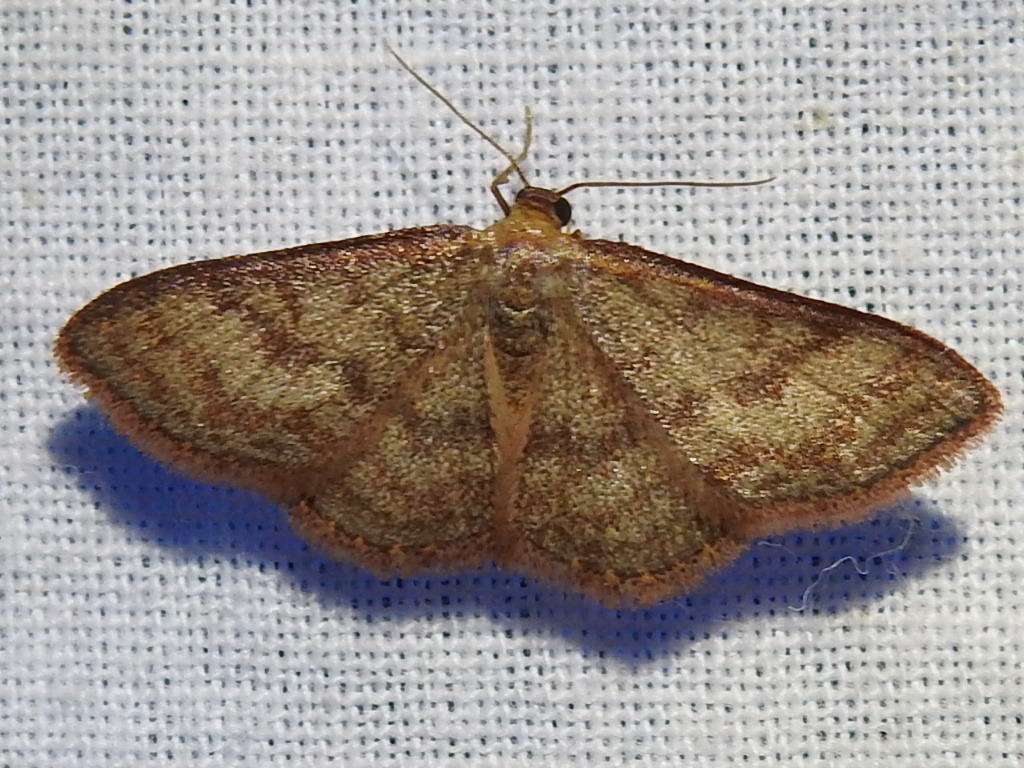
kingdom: Animalia
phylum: Arthropoda
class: Insecta
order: Lepidoptera
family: Geometridae
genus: Leptostales
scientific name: Leptostales pannaria
